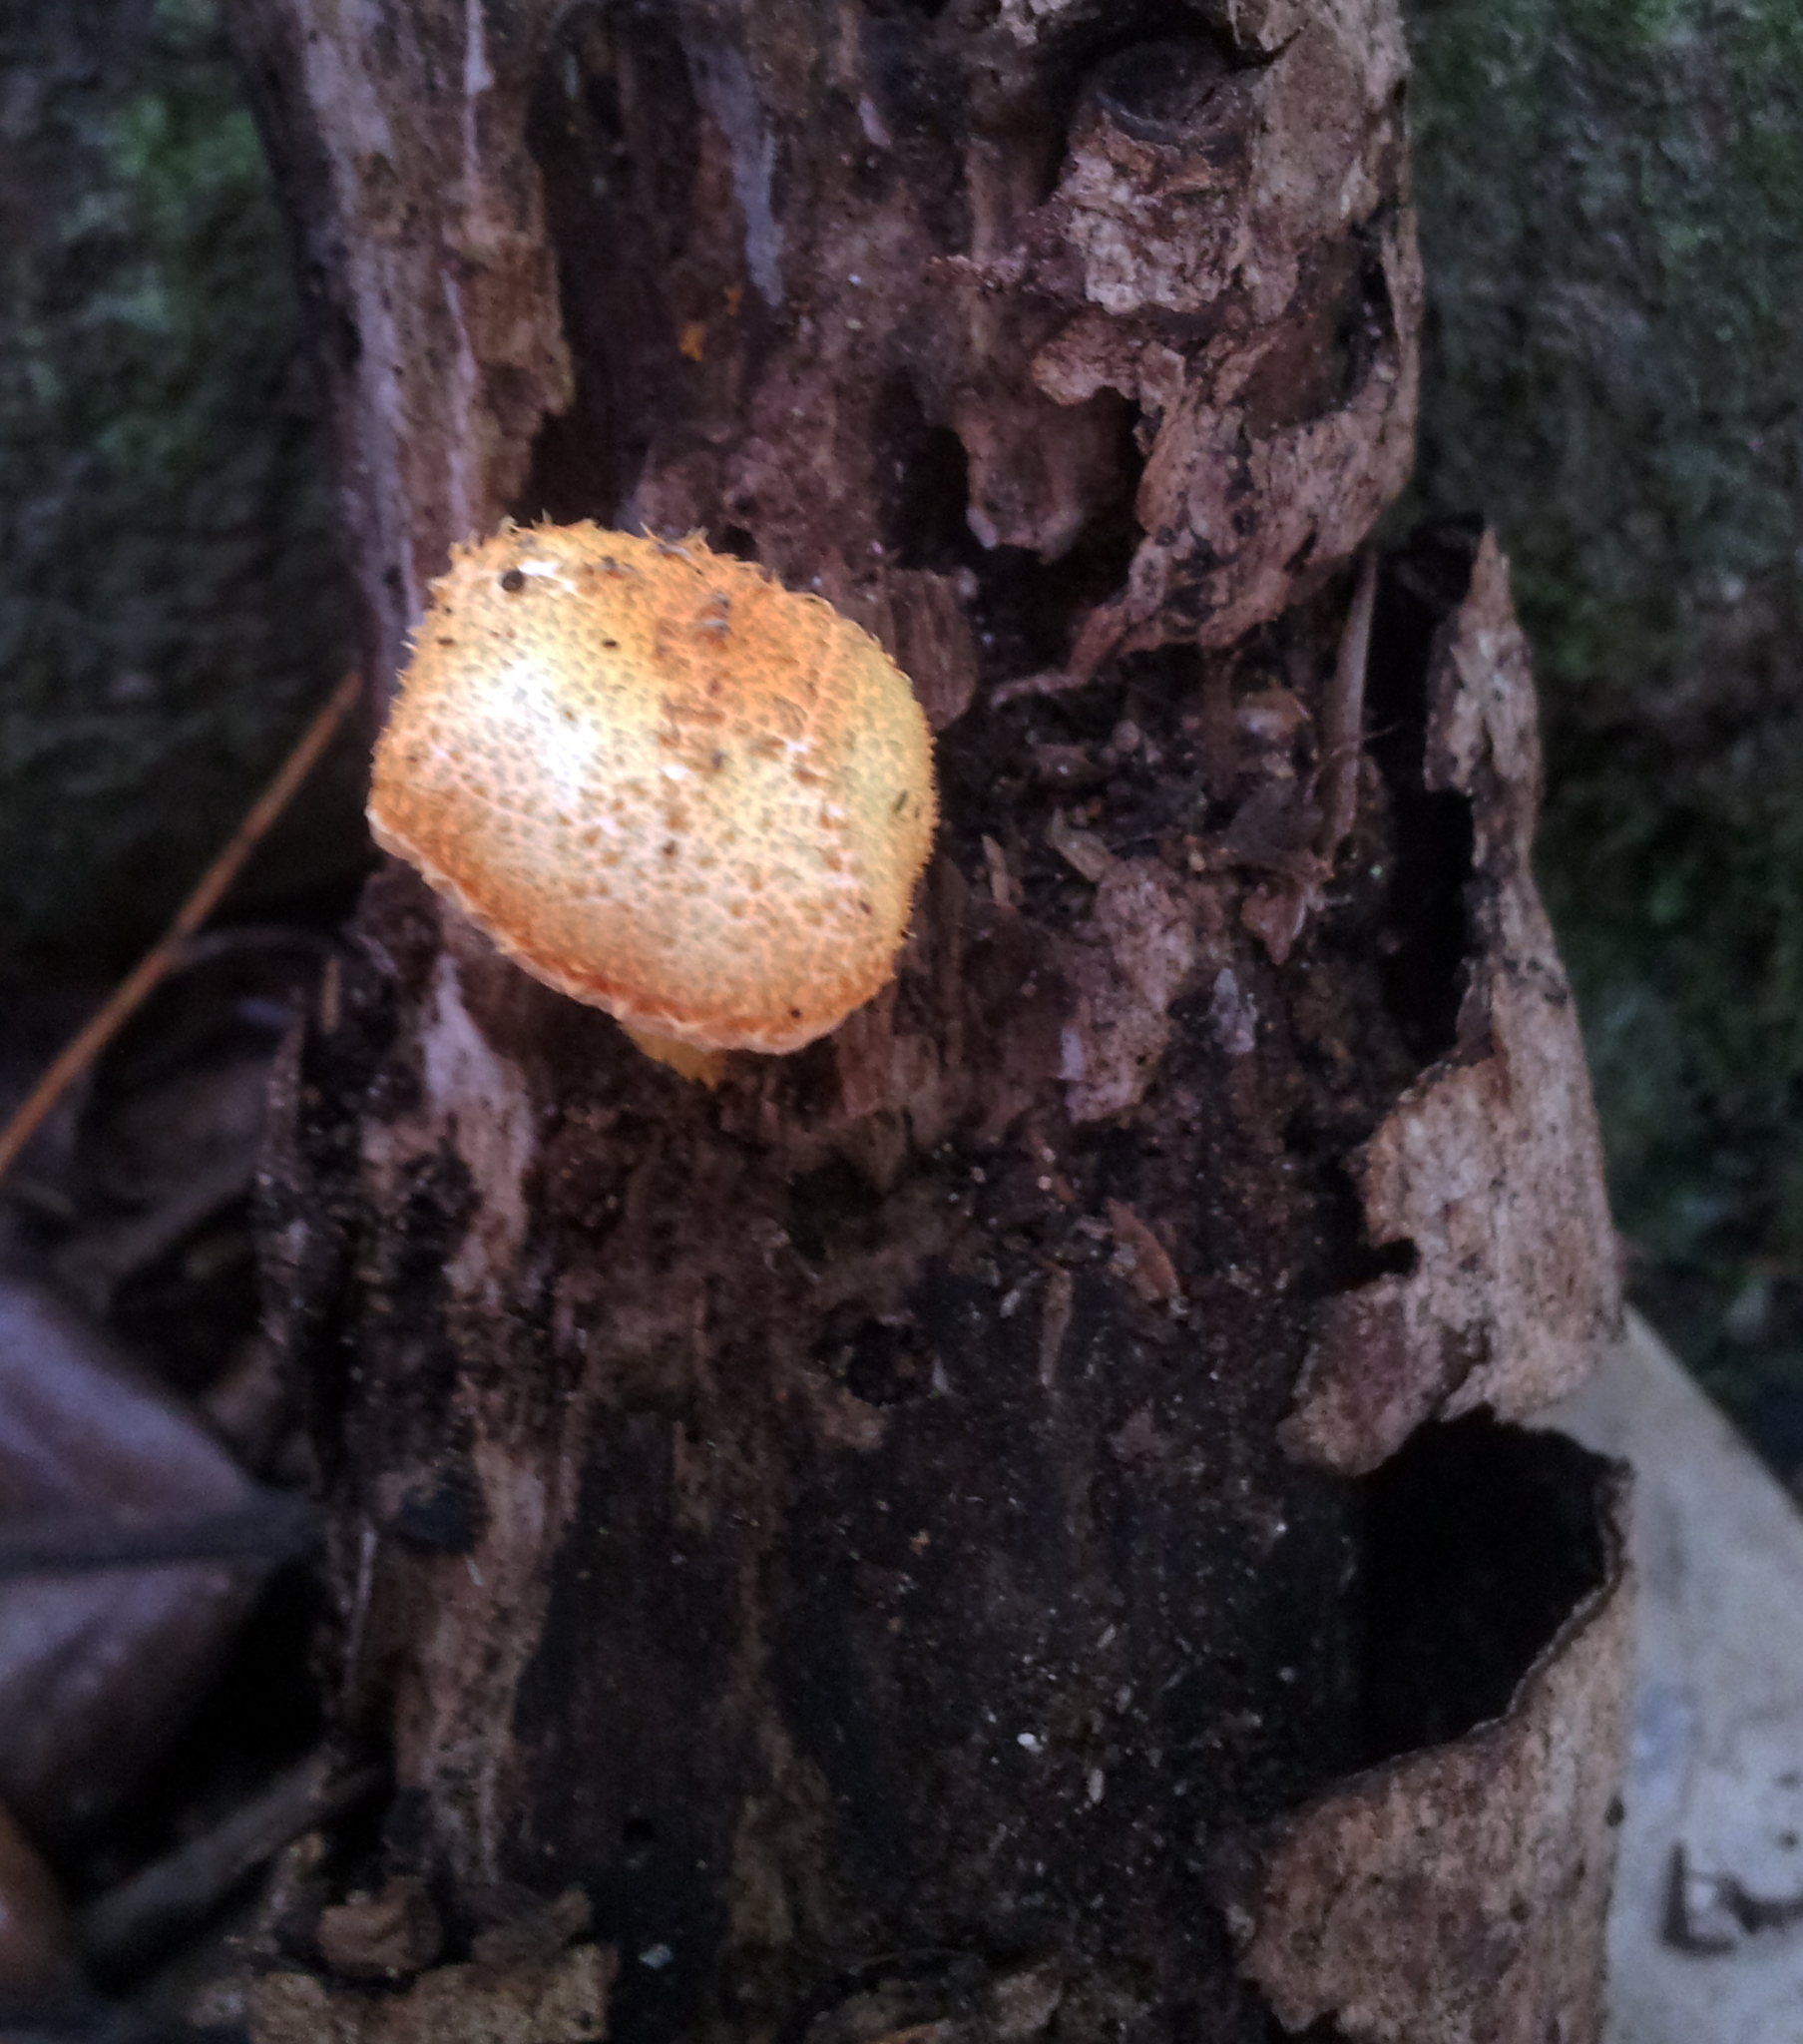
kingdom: Fungi
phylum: Basidiomycota
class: Agaricomycetes
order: Agaricales
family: Physalacriaceae
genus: Cyptotrama
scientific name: Cyptotrama asprata
